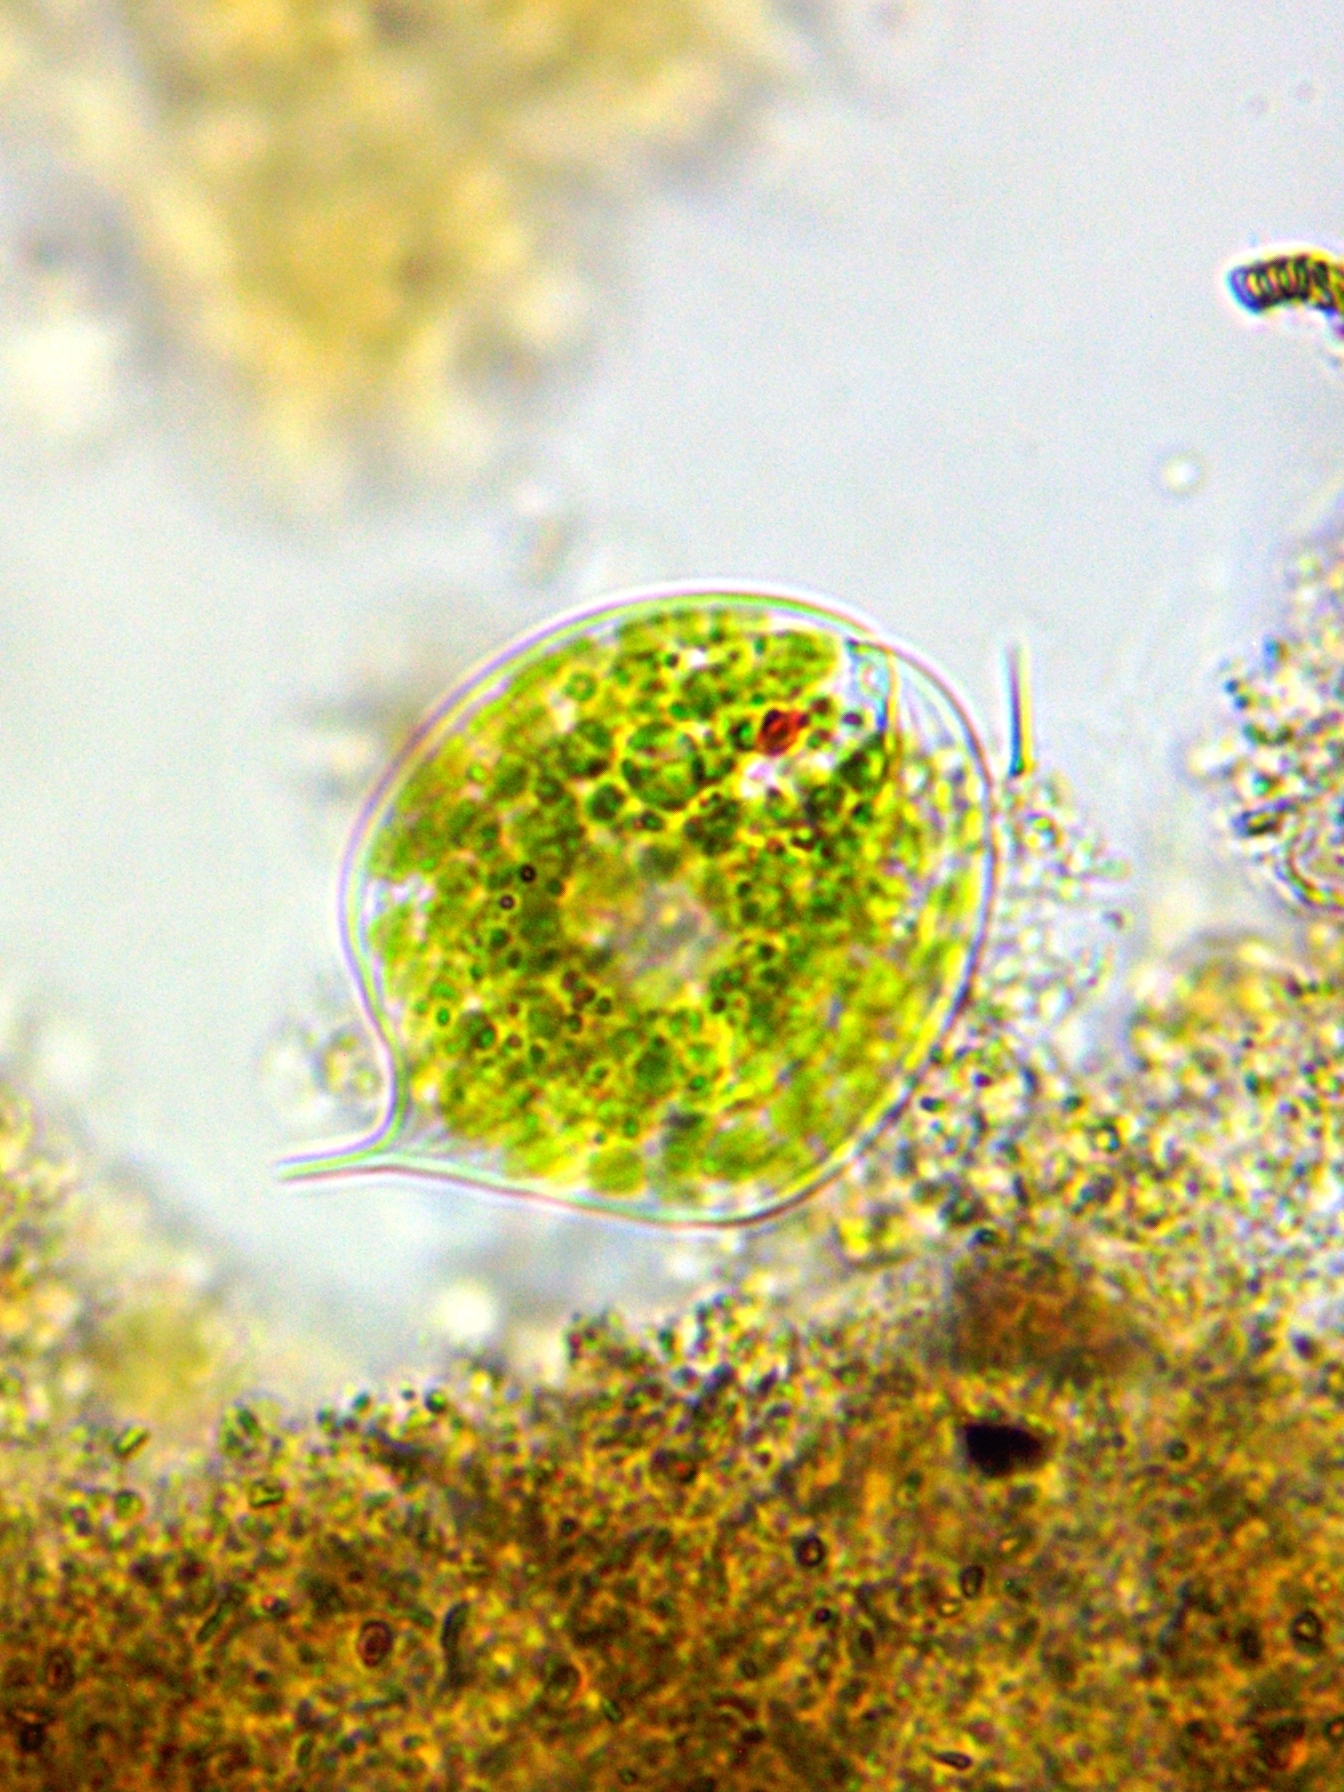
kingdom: Protozoa
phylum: Euglenozoa
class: Euglenoidea
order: Euglenida
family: Phacidae
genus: Phacus
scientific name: Phacus orbicularis
